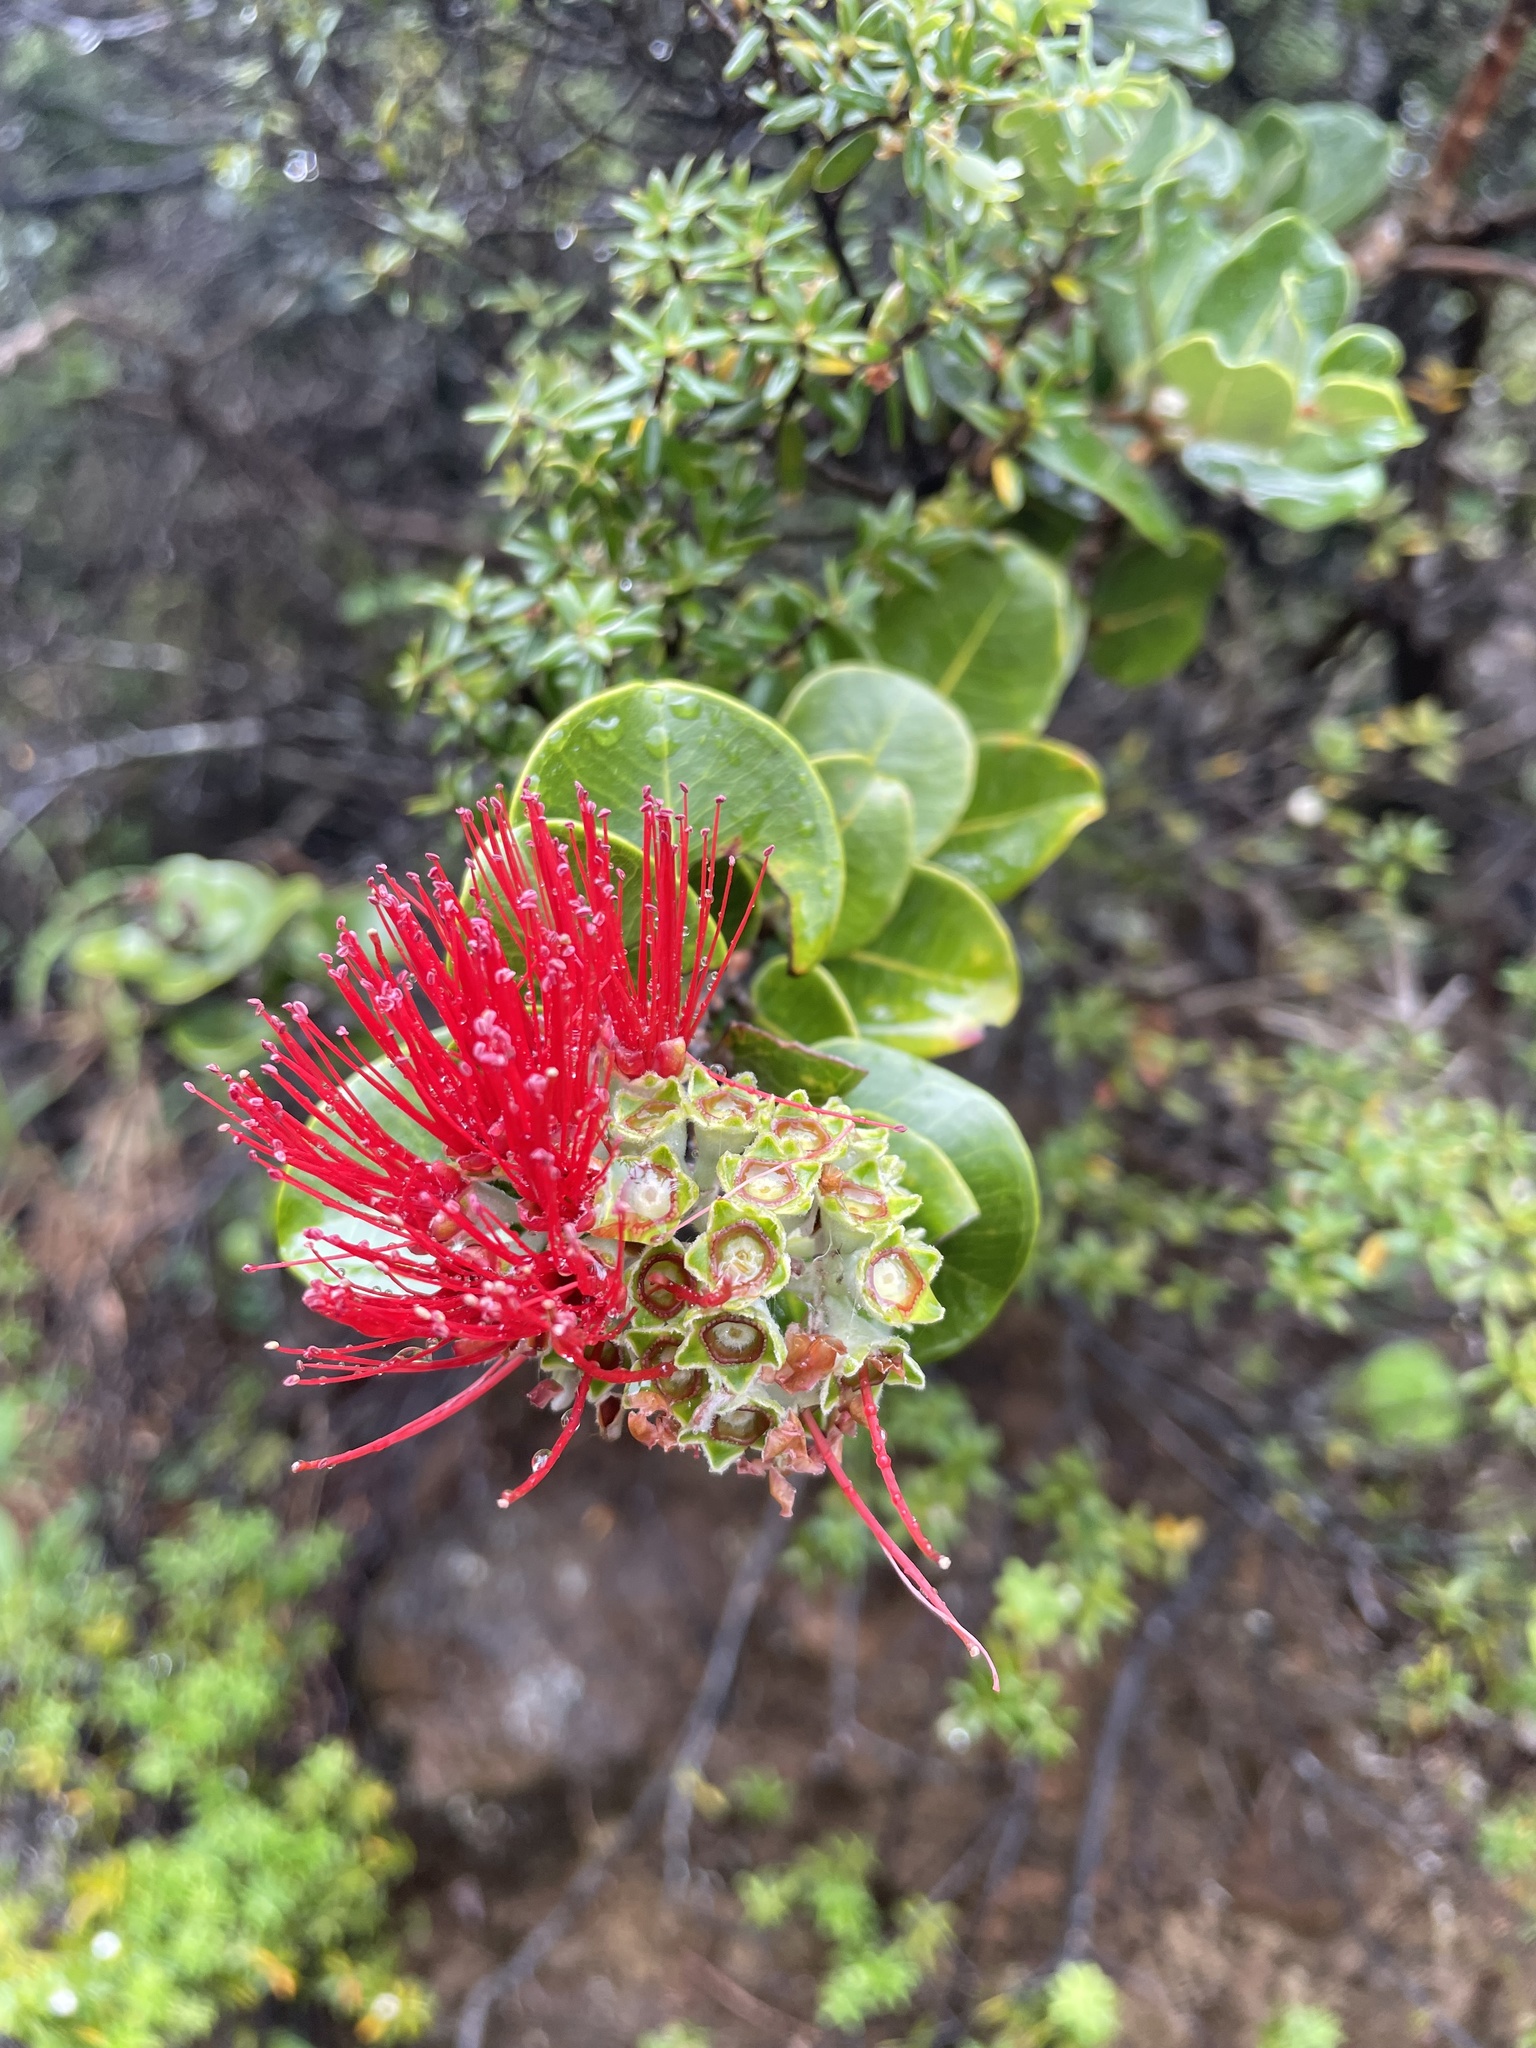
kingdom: Plantae
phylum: Tracheophyta
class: Magnoliopsida
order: Myrtales
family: Myrtaceae
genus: Metrosideros
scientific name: Metrosideros polymorpha
